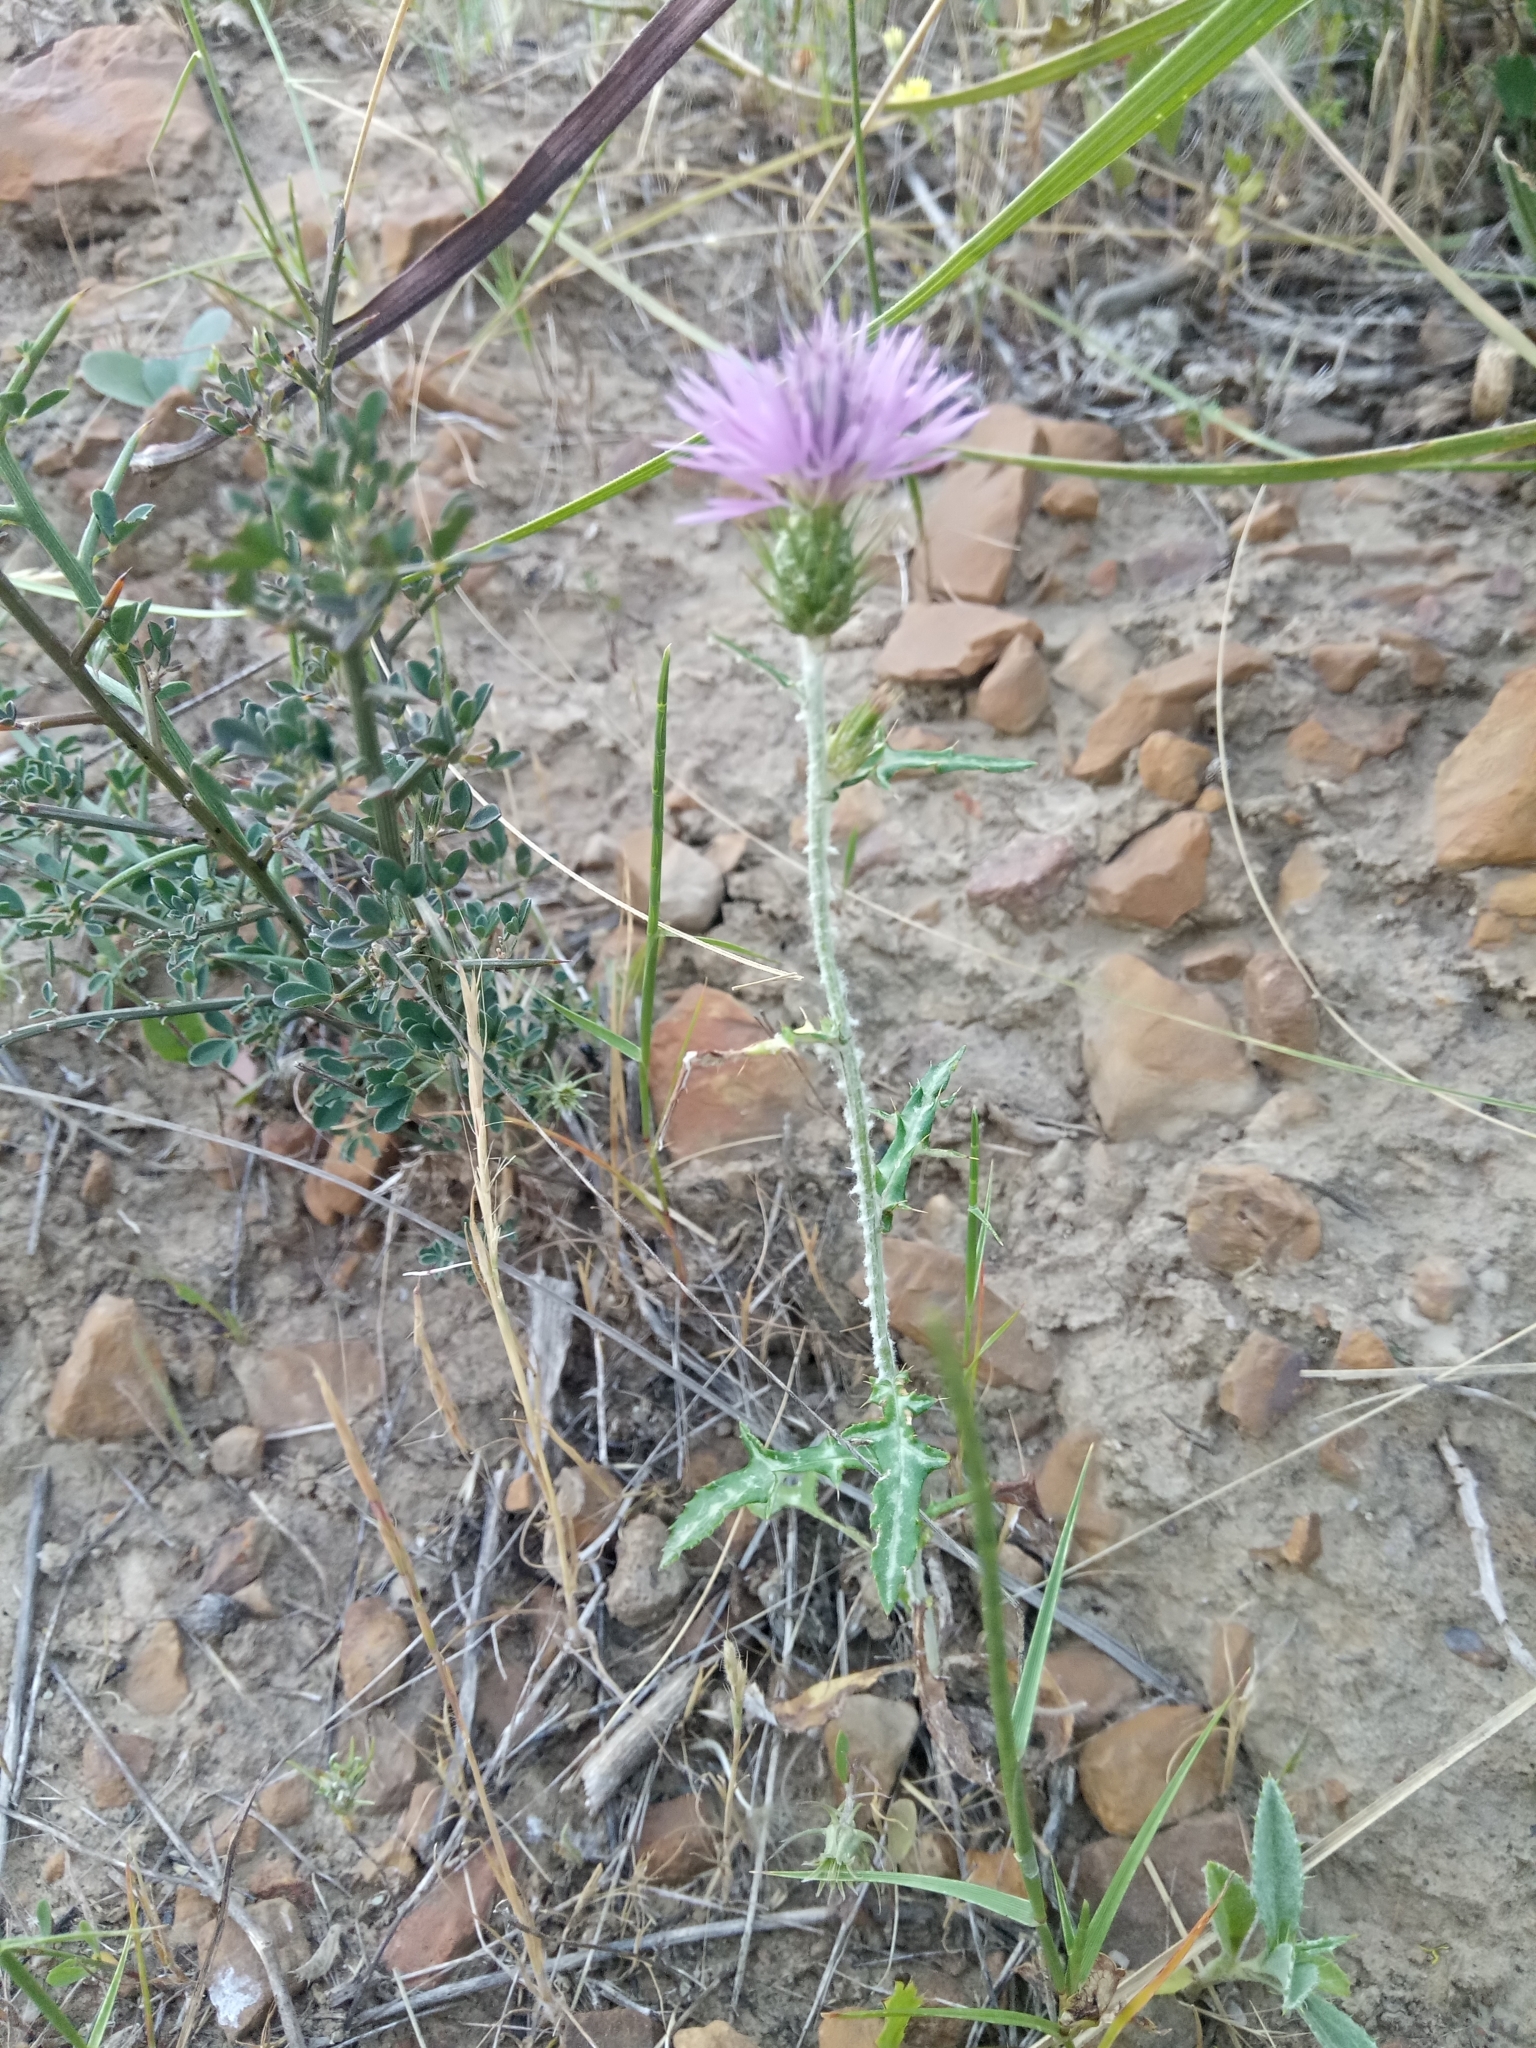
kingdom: Plantae
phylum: Tracheophyta
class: Magnoliopsida
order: Asterales
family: Asteraceae
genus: Galactites
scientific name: Galactites tomentosa
